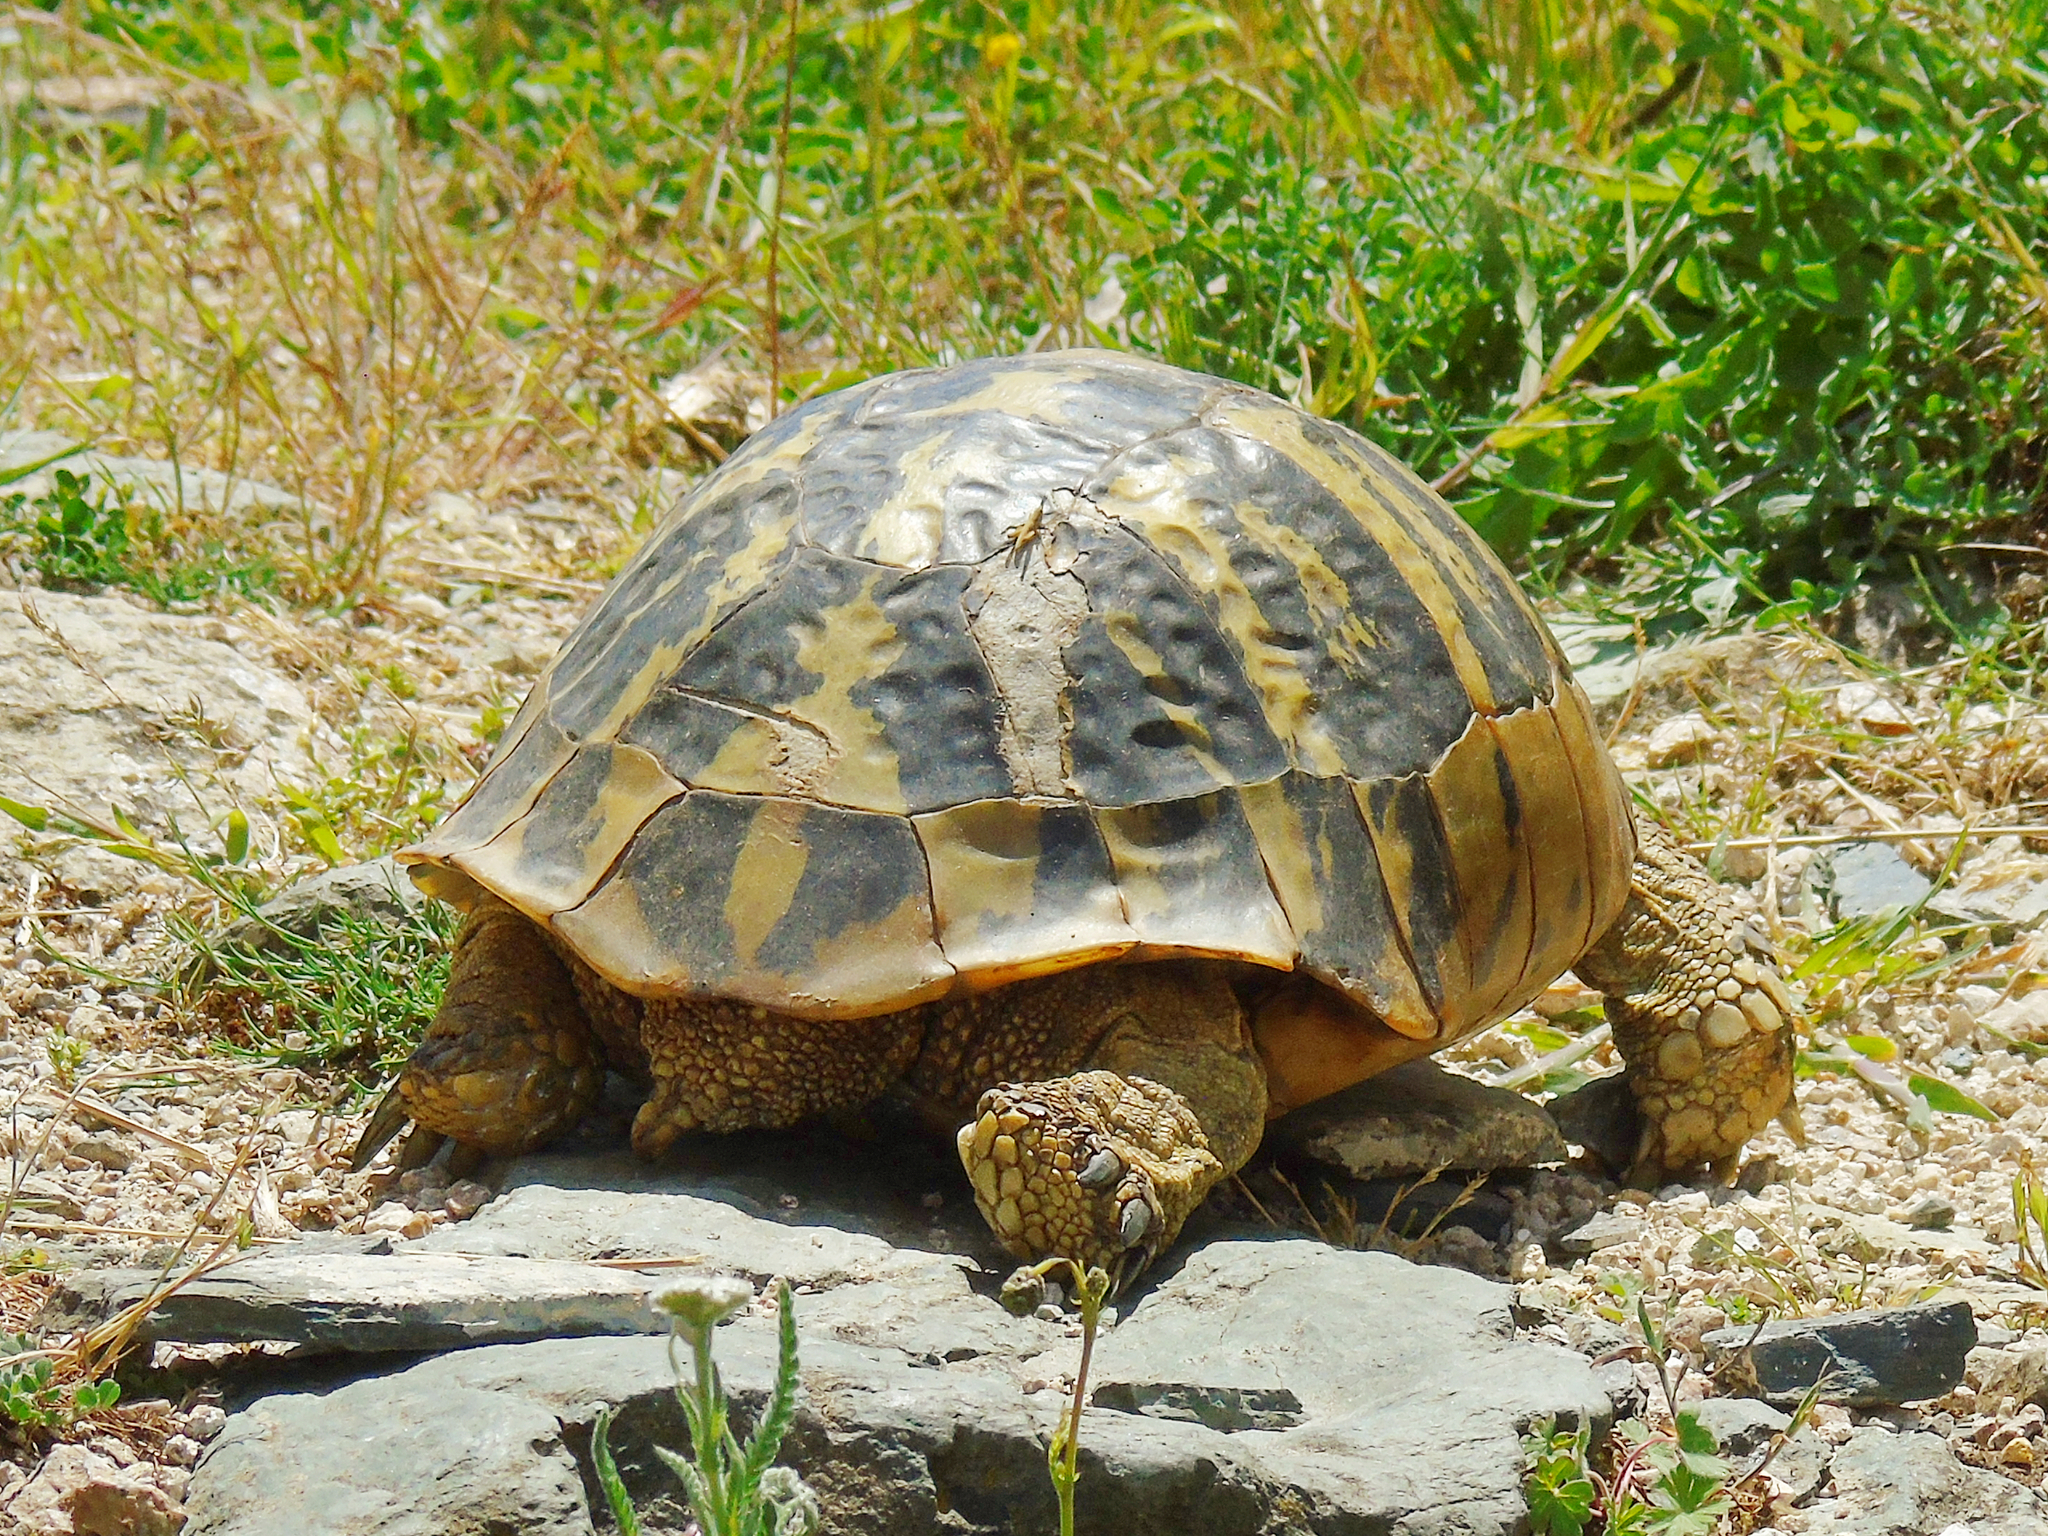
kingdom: Animalia
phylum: Chordata
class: Testudines
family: Testudinidae
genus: Testudo
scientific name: Testudo hermanni
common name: Hermann's tortoise
